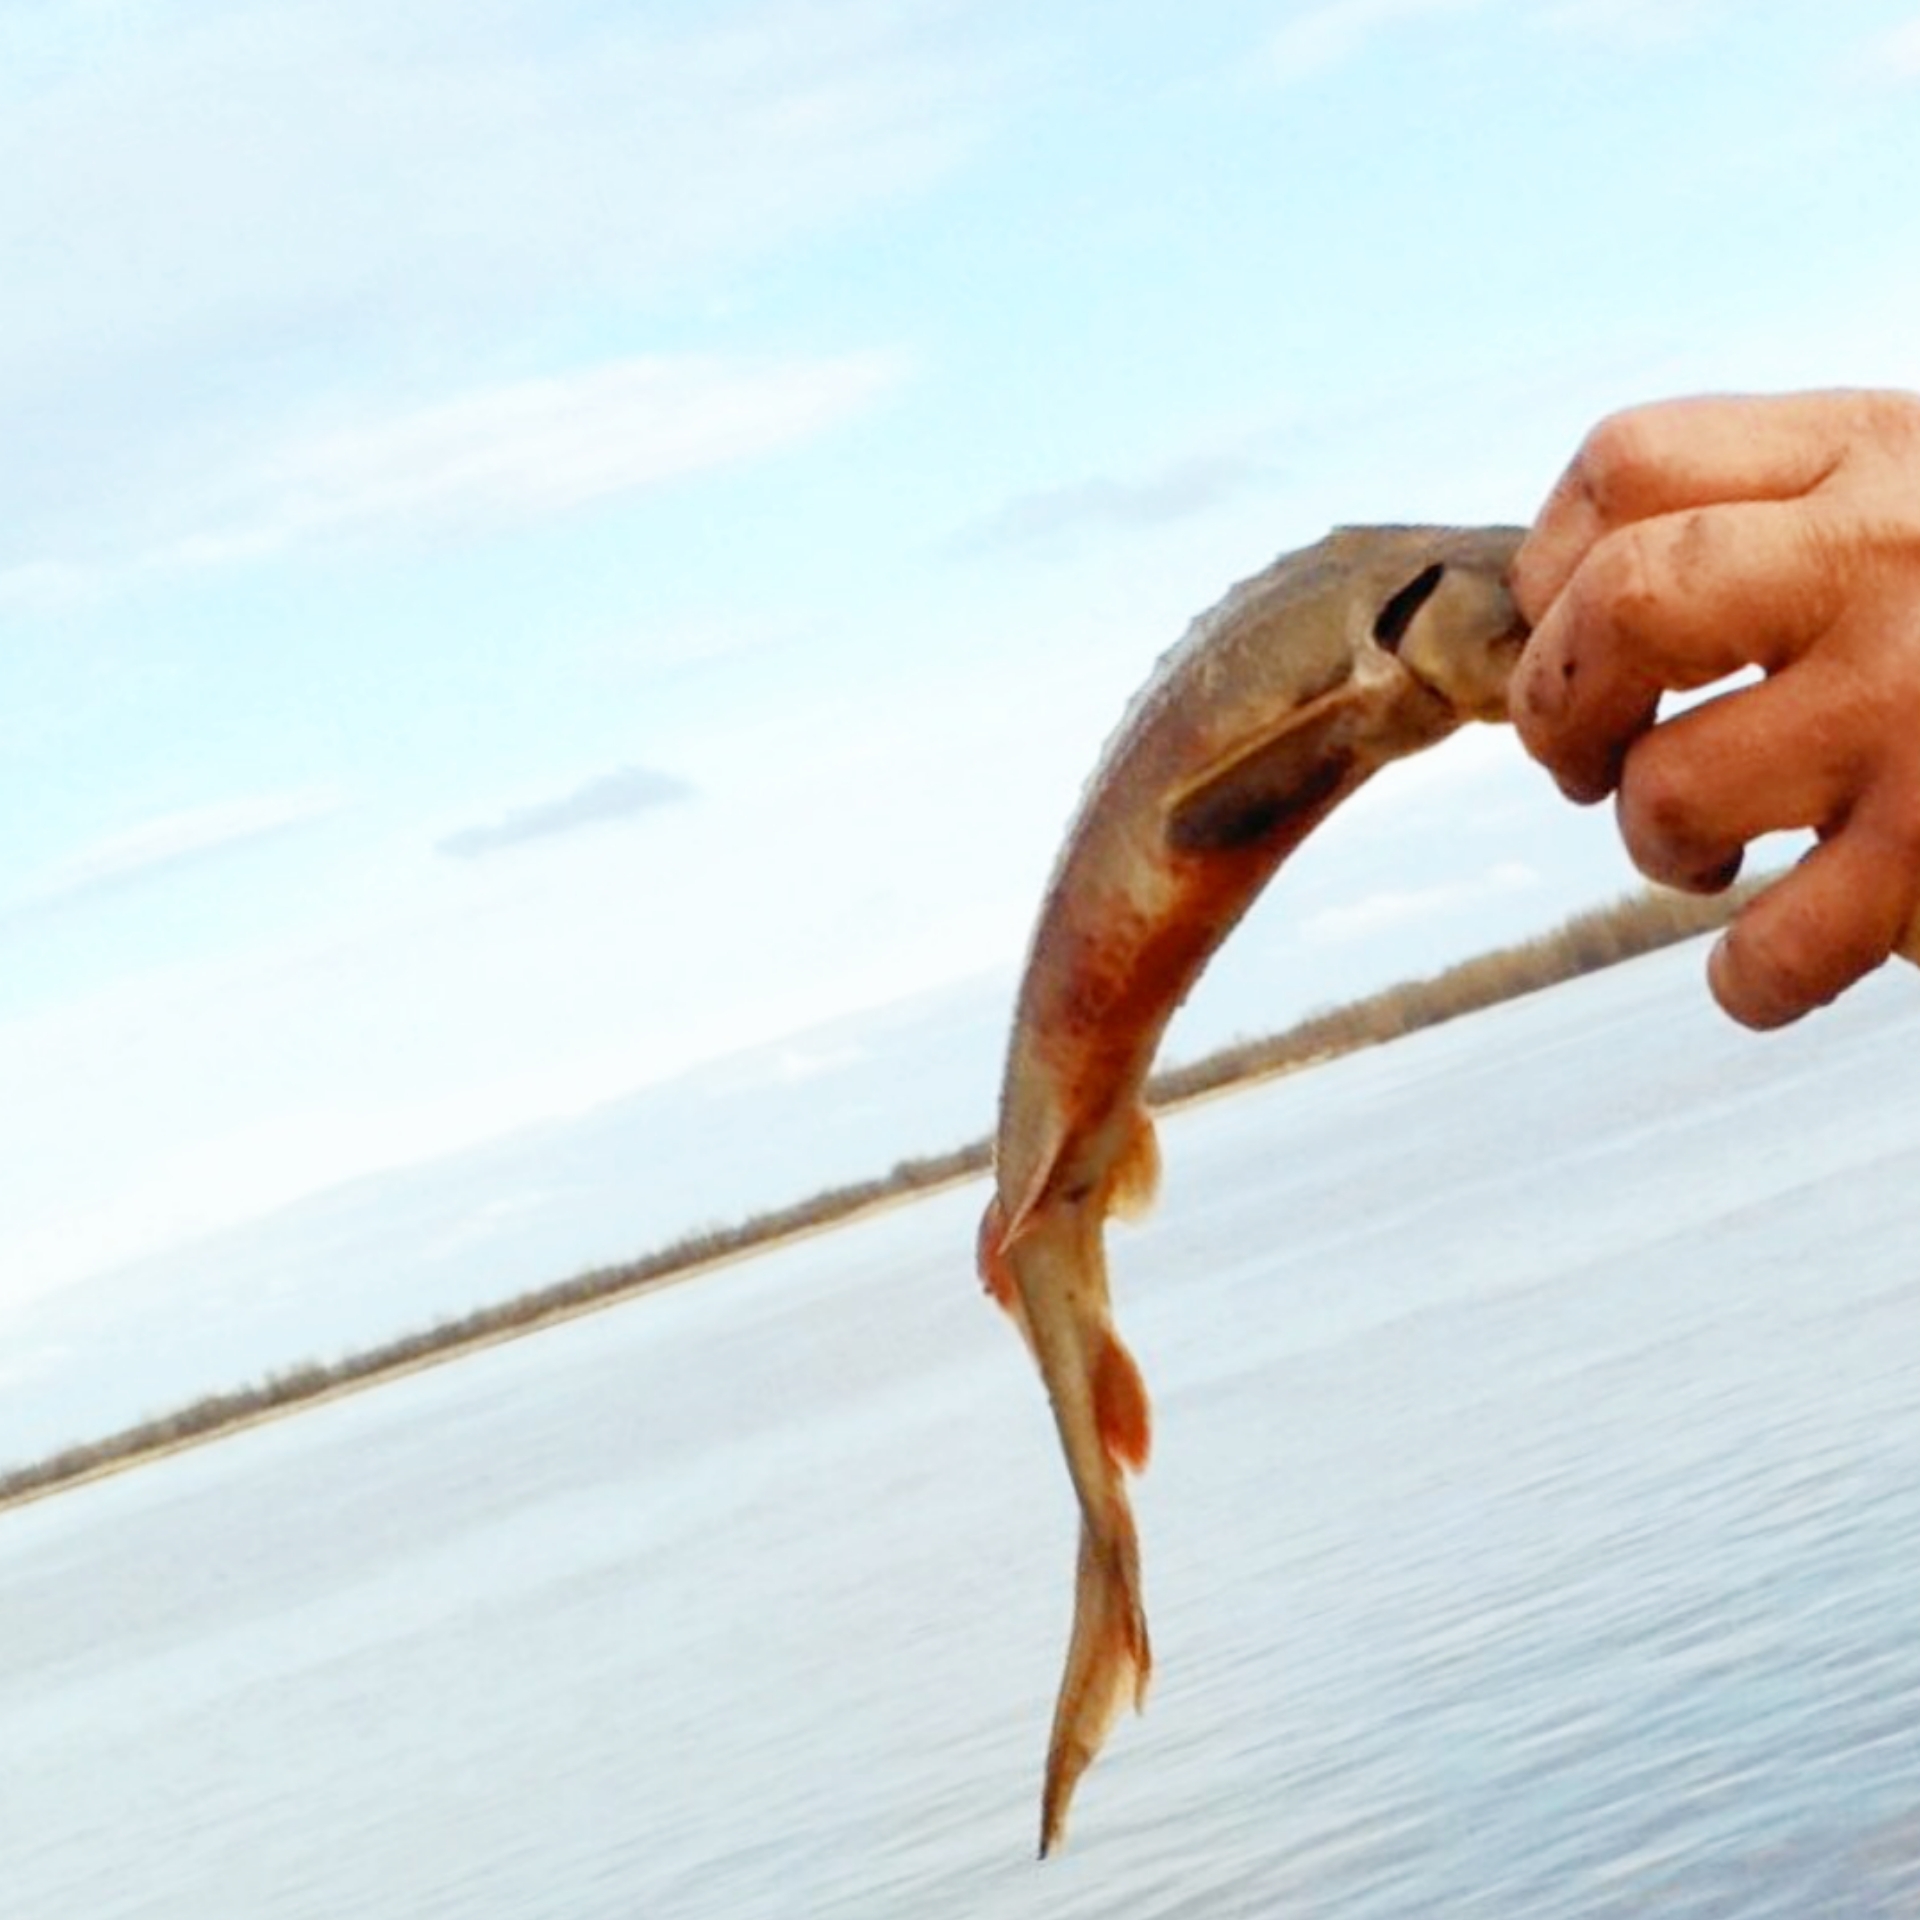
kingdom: Animalia
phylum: Chordata
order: Acipenseriformes
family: Acipenseridae
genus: Acipenser
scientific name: Acipenser ruthenus
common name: Sterlet
